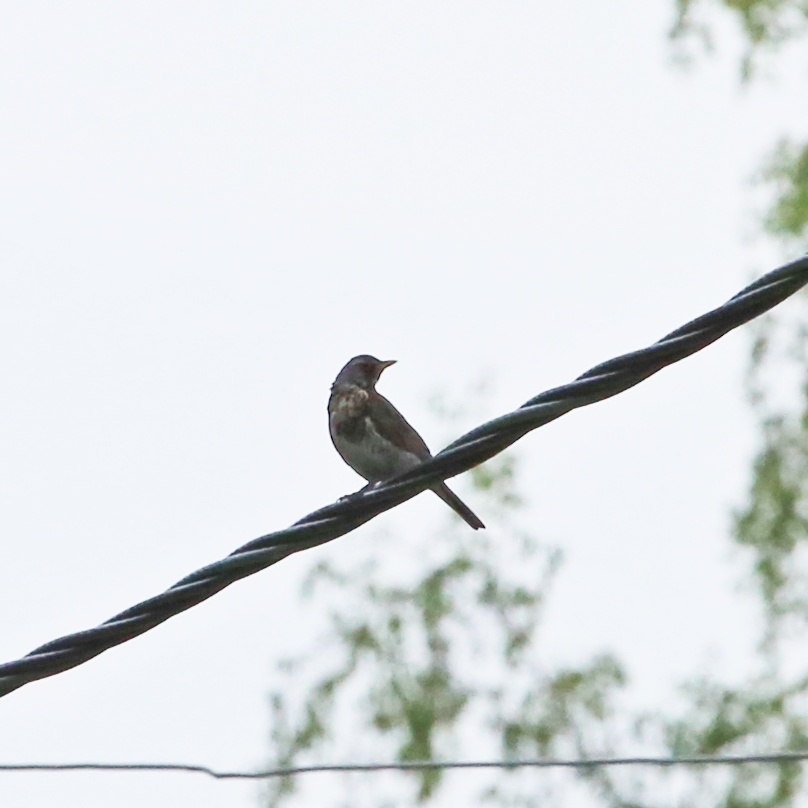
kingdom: Animalia
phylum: Chordata
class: Aves
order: Passeriformes
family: Turdidae
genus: Turdus
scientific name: Turdus pilaris
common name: Fieldfare
